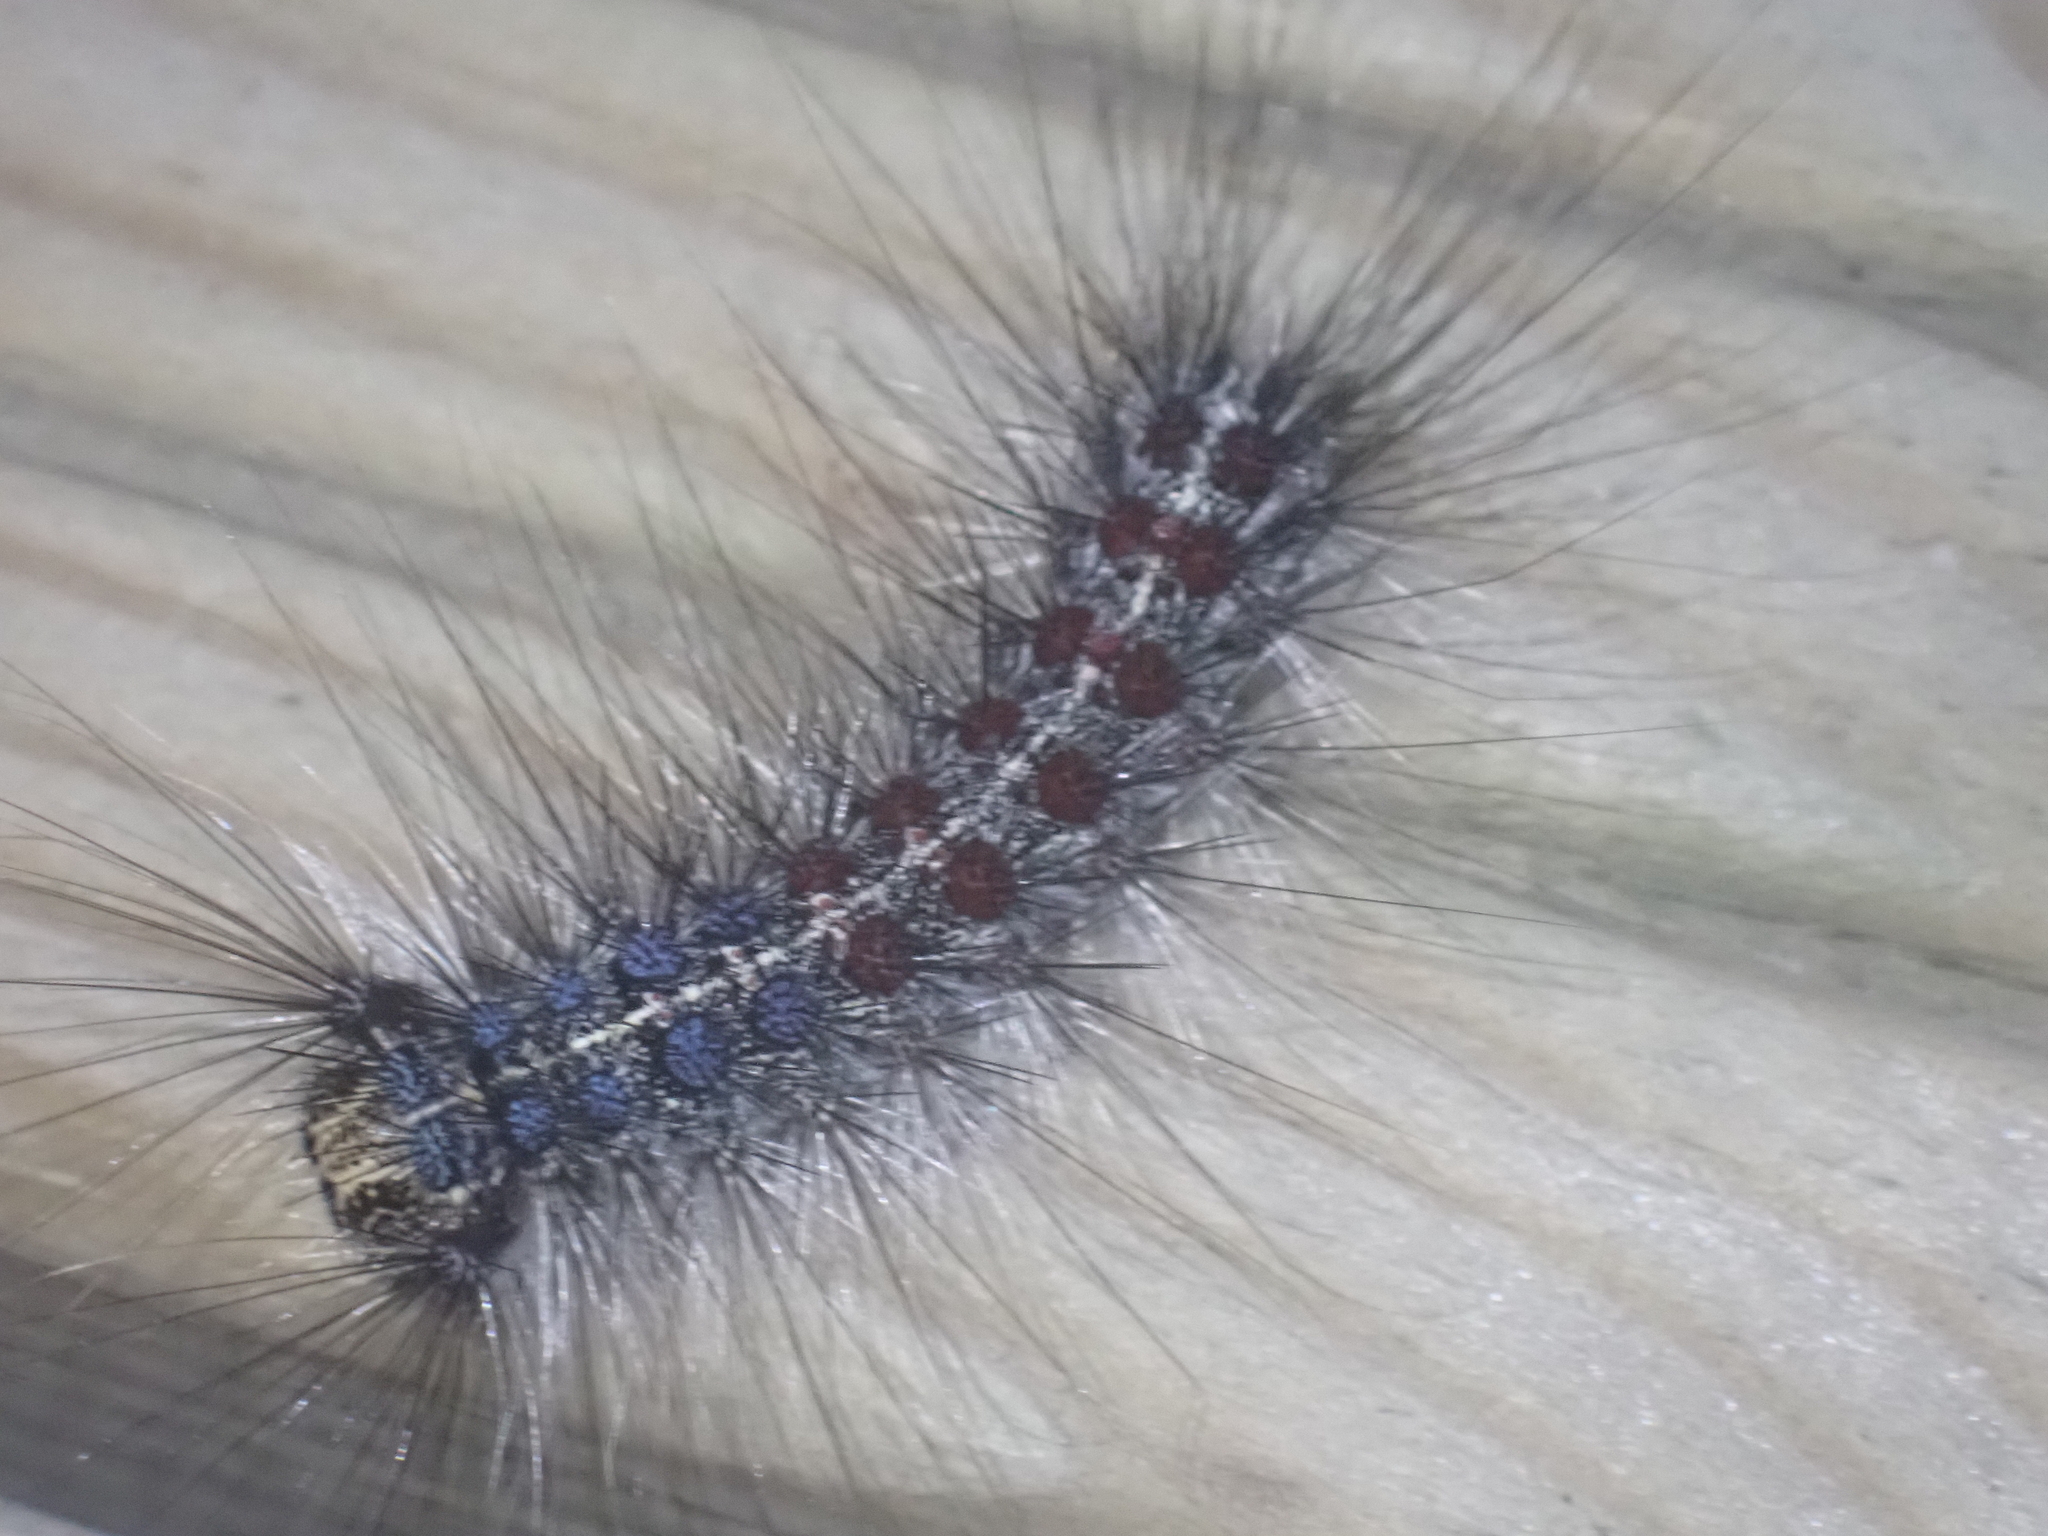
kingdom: Animalia
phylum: Arthropoda
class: Insecta
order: Lepidoptera
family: Erebidae
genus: Lymantria
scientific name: Lymantria dispar
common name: Gypsy moth
